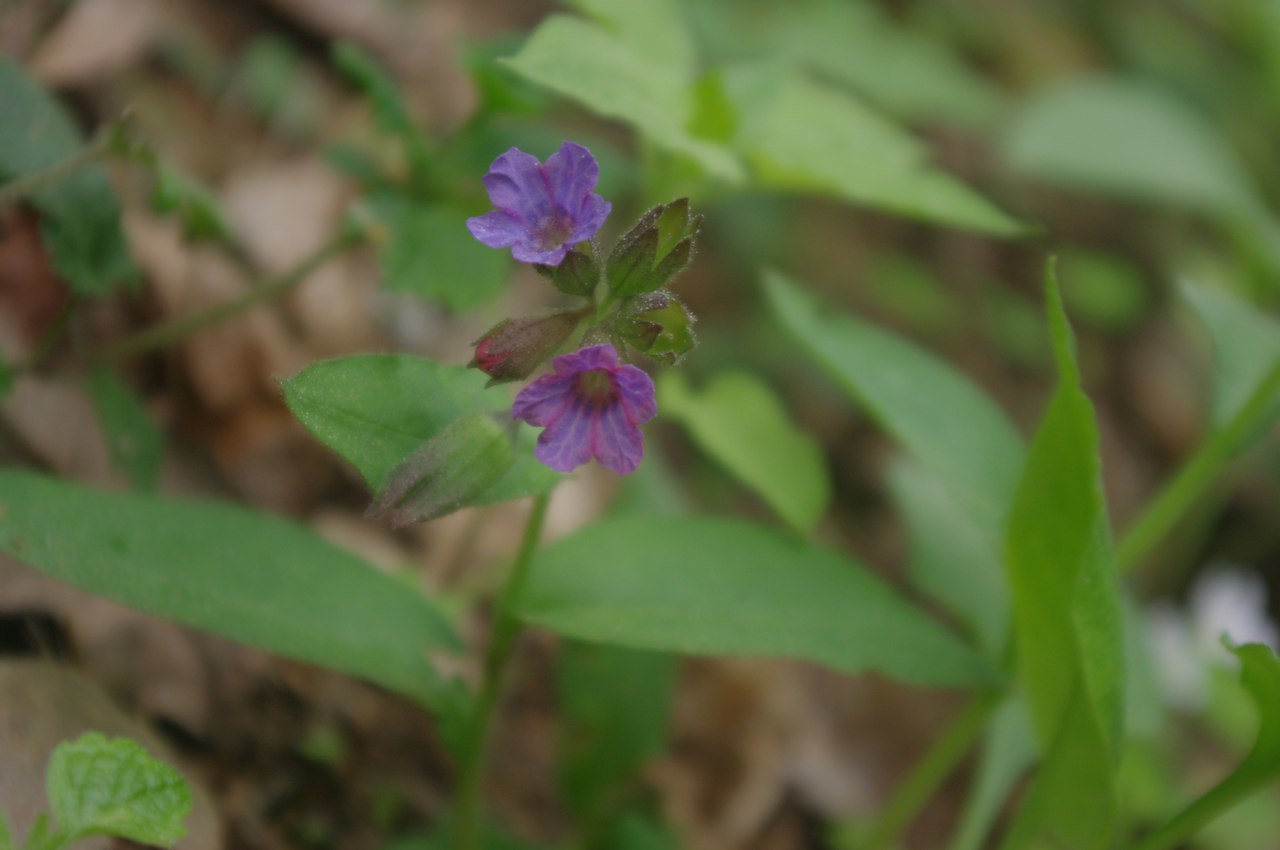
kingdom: Plantae
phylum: Tracheophyta
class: Magnoliopsida
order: Boraginales
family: Boraginaceae
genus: Pulmonaria
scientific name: Pulmonaria obscura
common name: Suffolk lungwort
